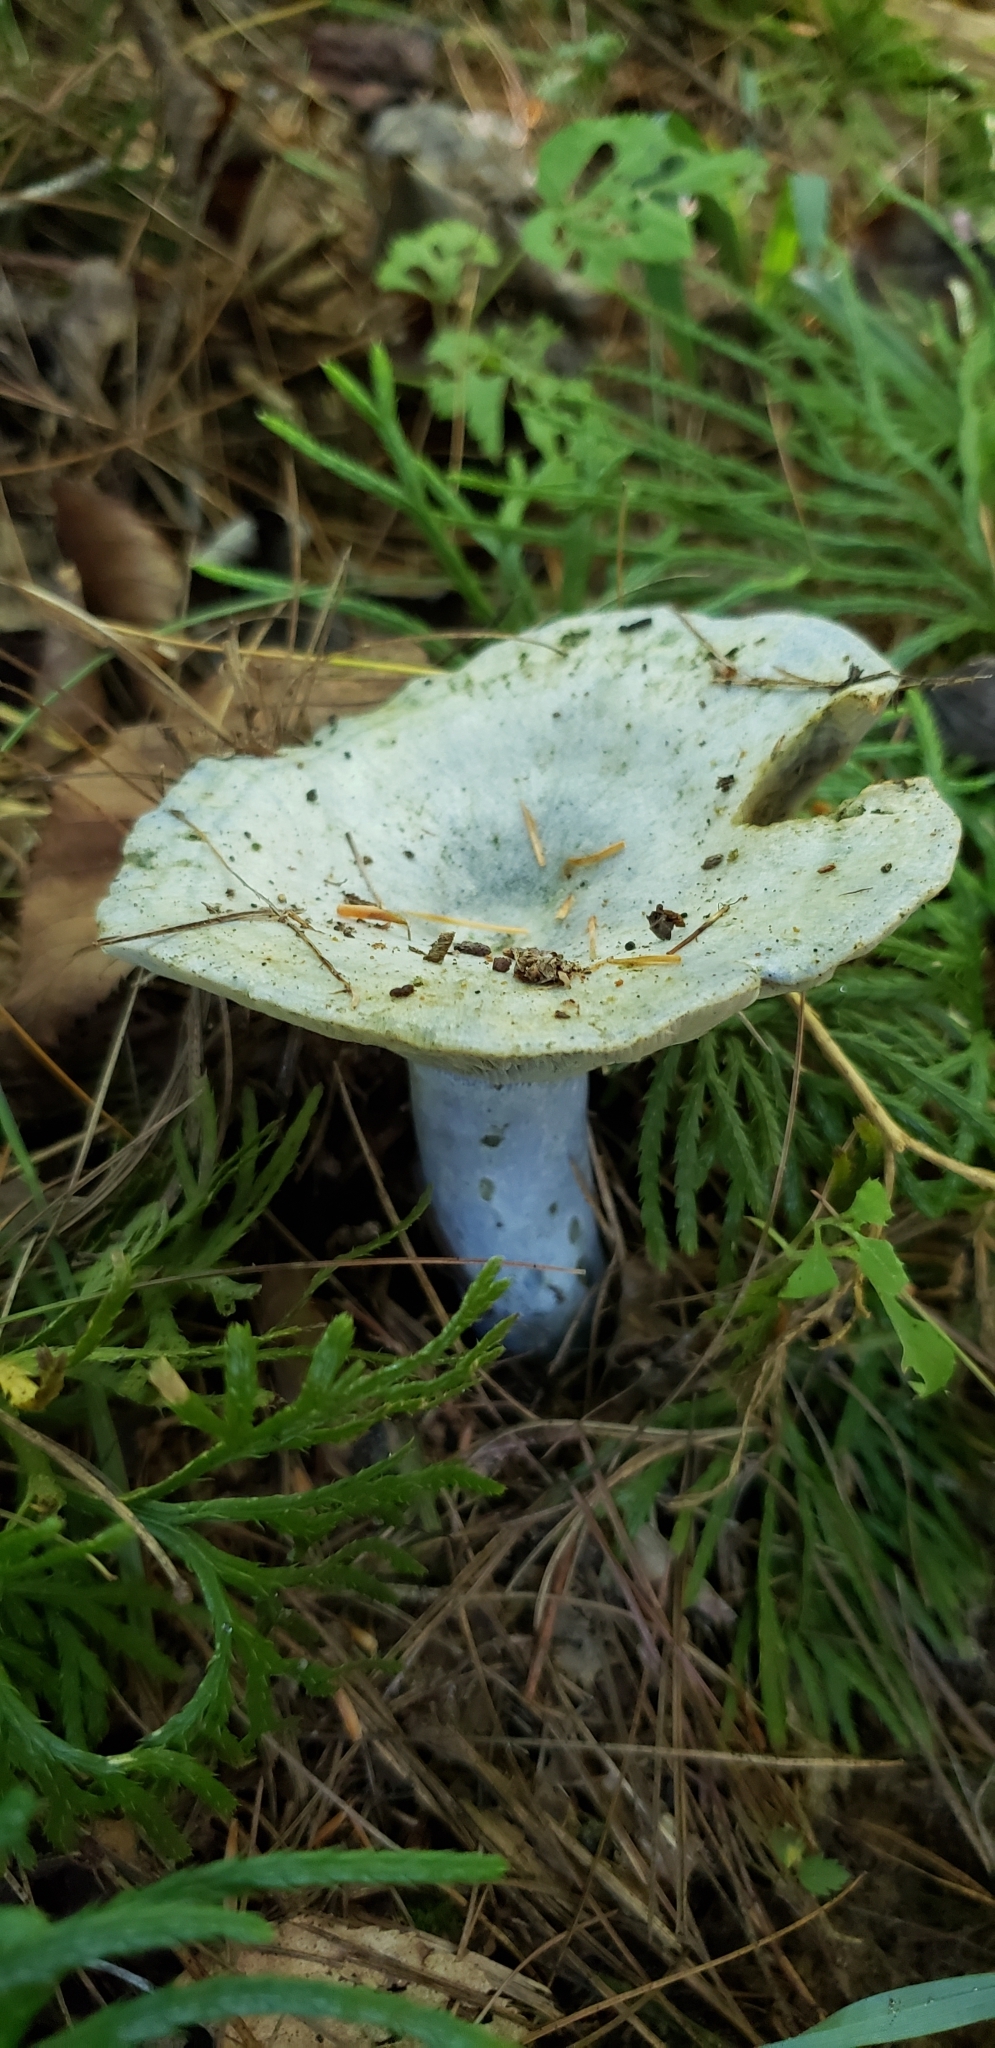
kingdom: Fungi
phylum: Basidiomycota
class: Agaricomycetes
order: Russulales
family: Russulaceae
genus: Lactarius
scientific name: Lactarius indigo
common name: Indigo milk cap
